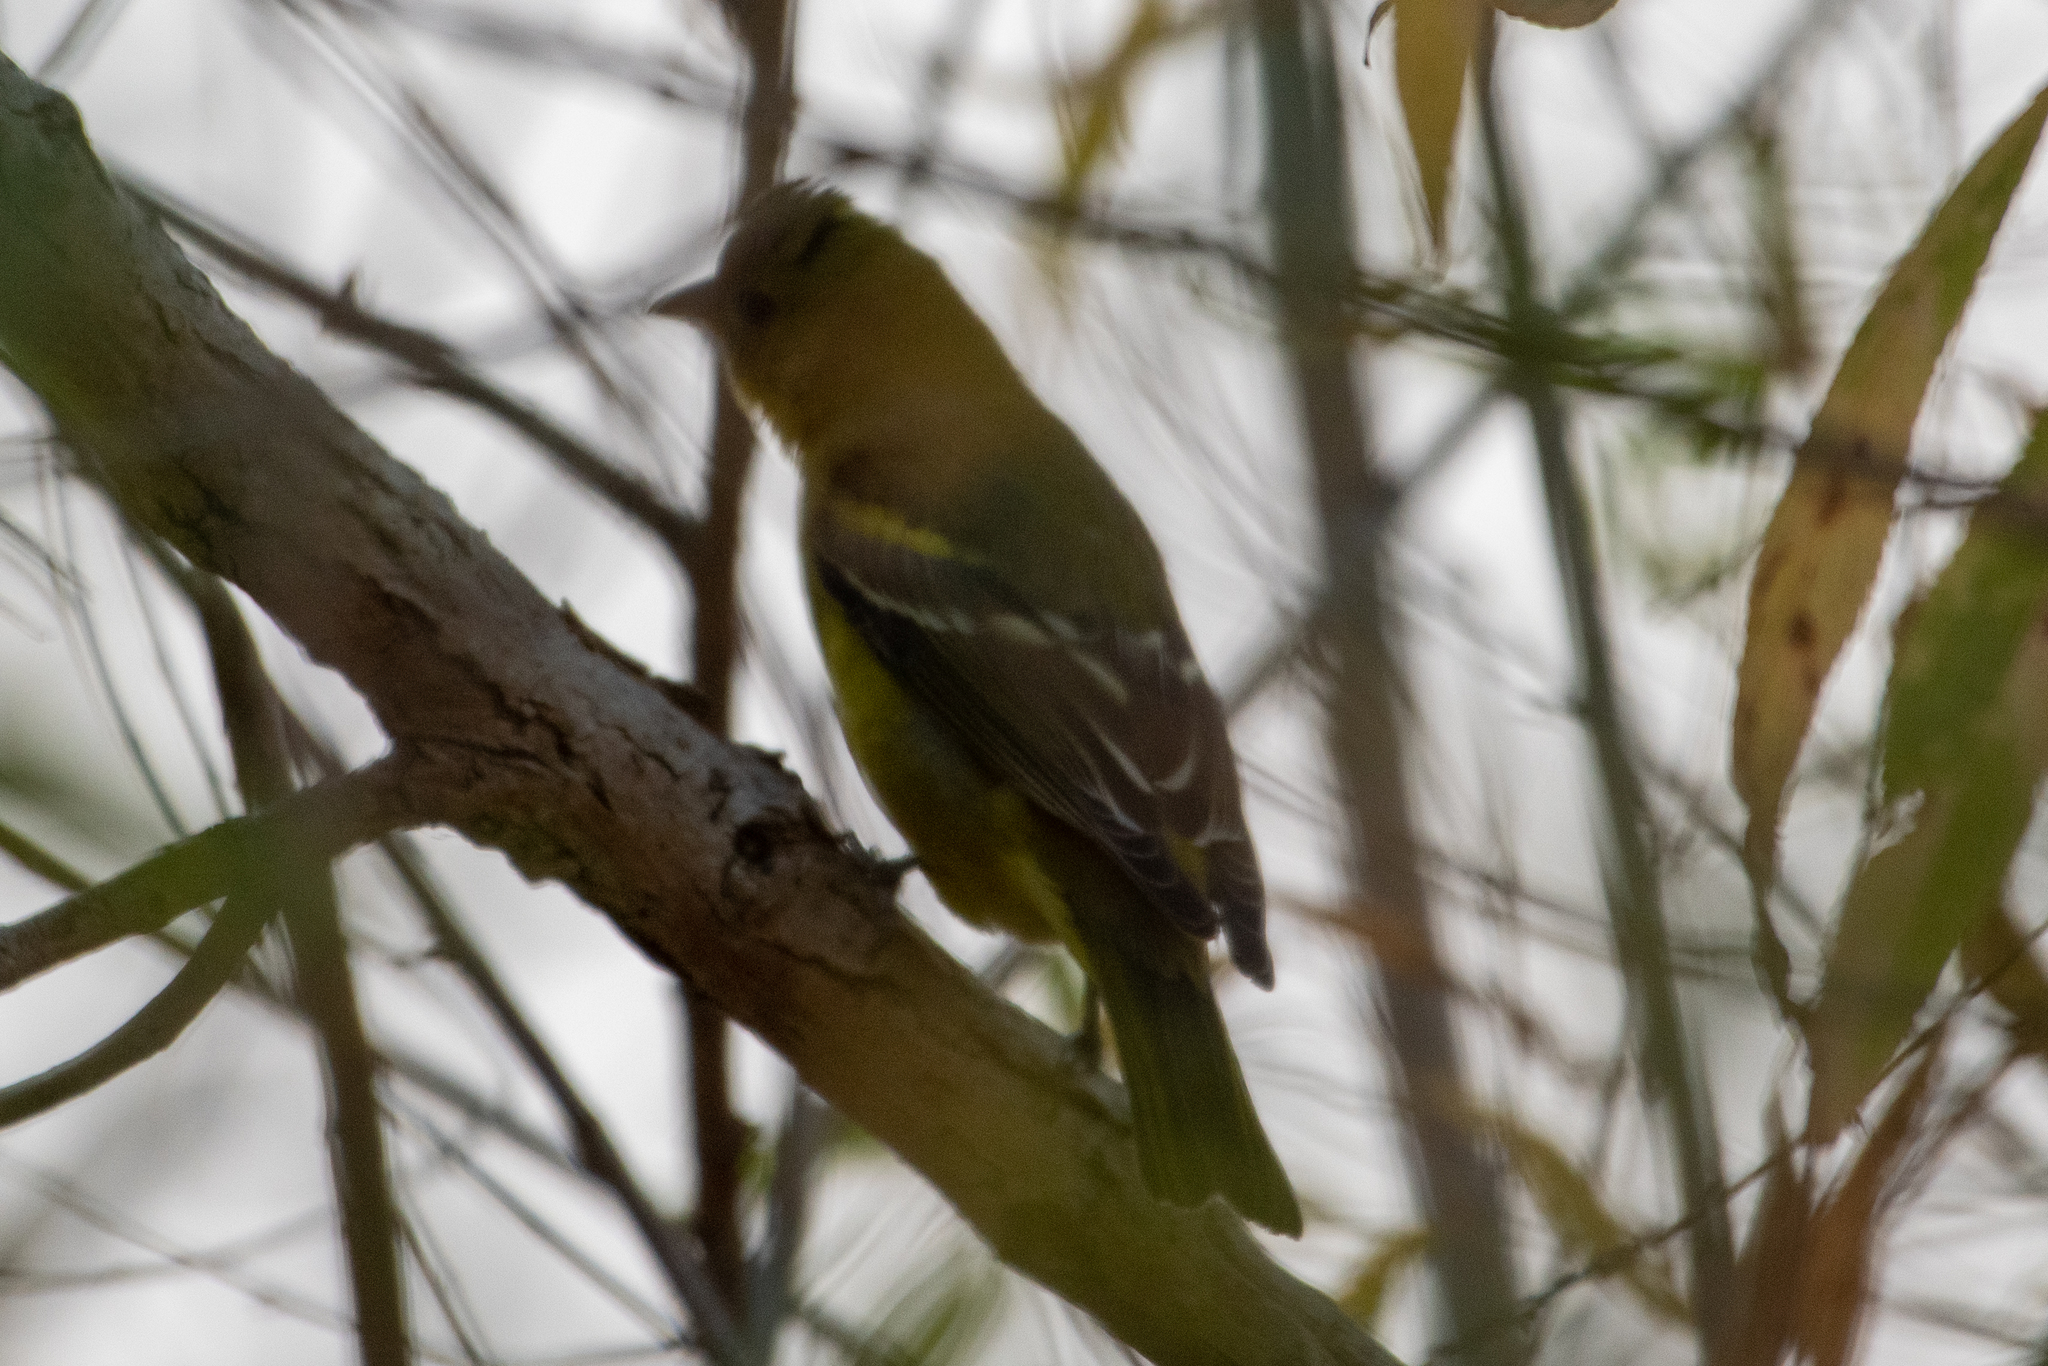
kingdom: Animalia
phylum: Chordata
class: Aves
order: Passeriformes
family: Cardinalidae
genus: Piranga
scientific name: Piranga ludoviciana
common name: Western tanager
